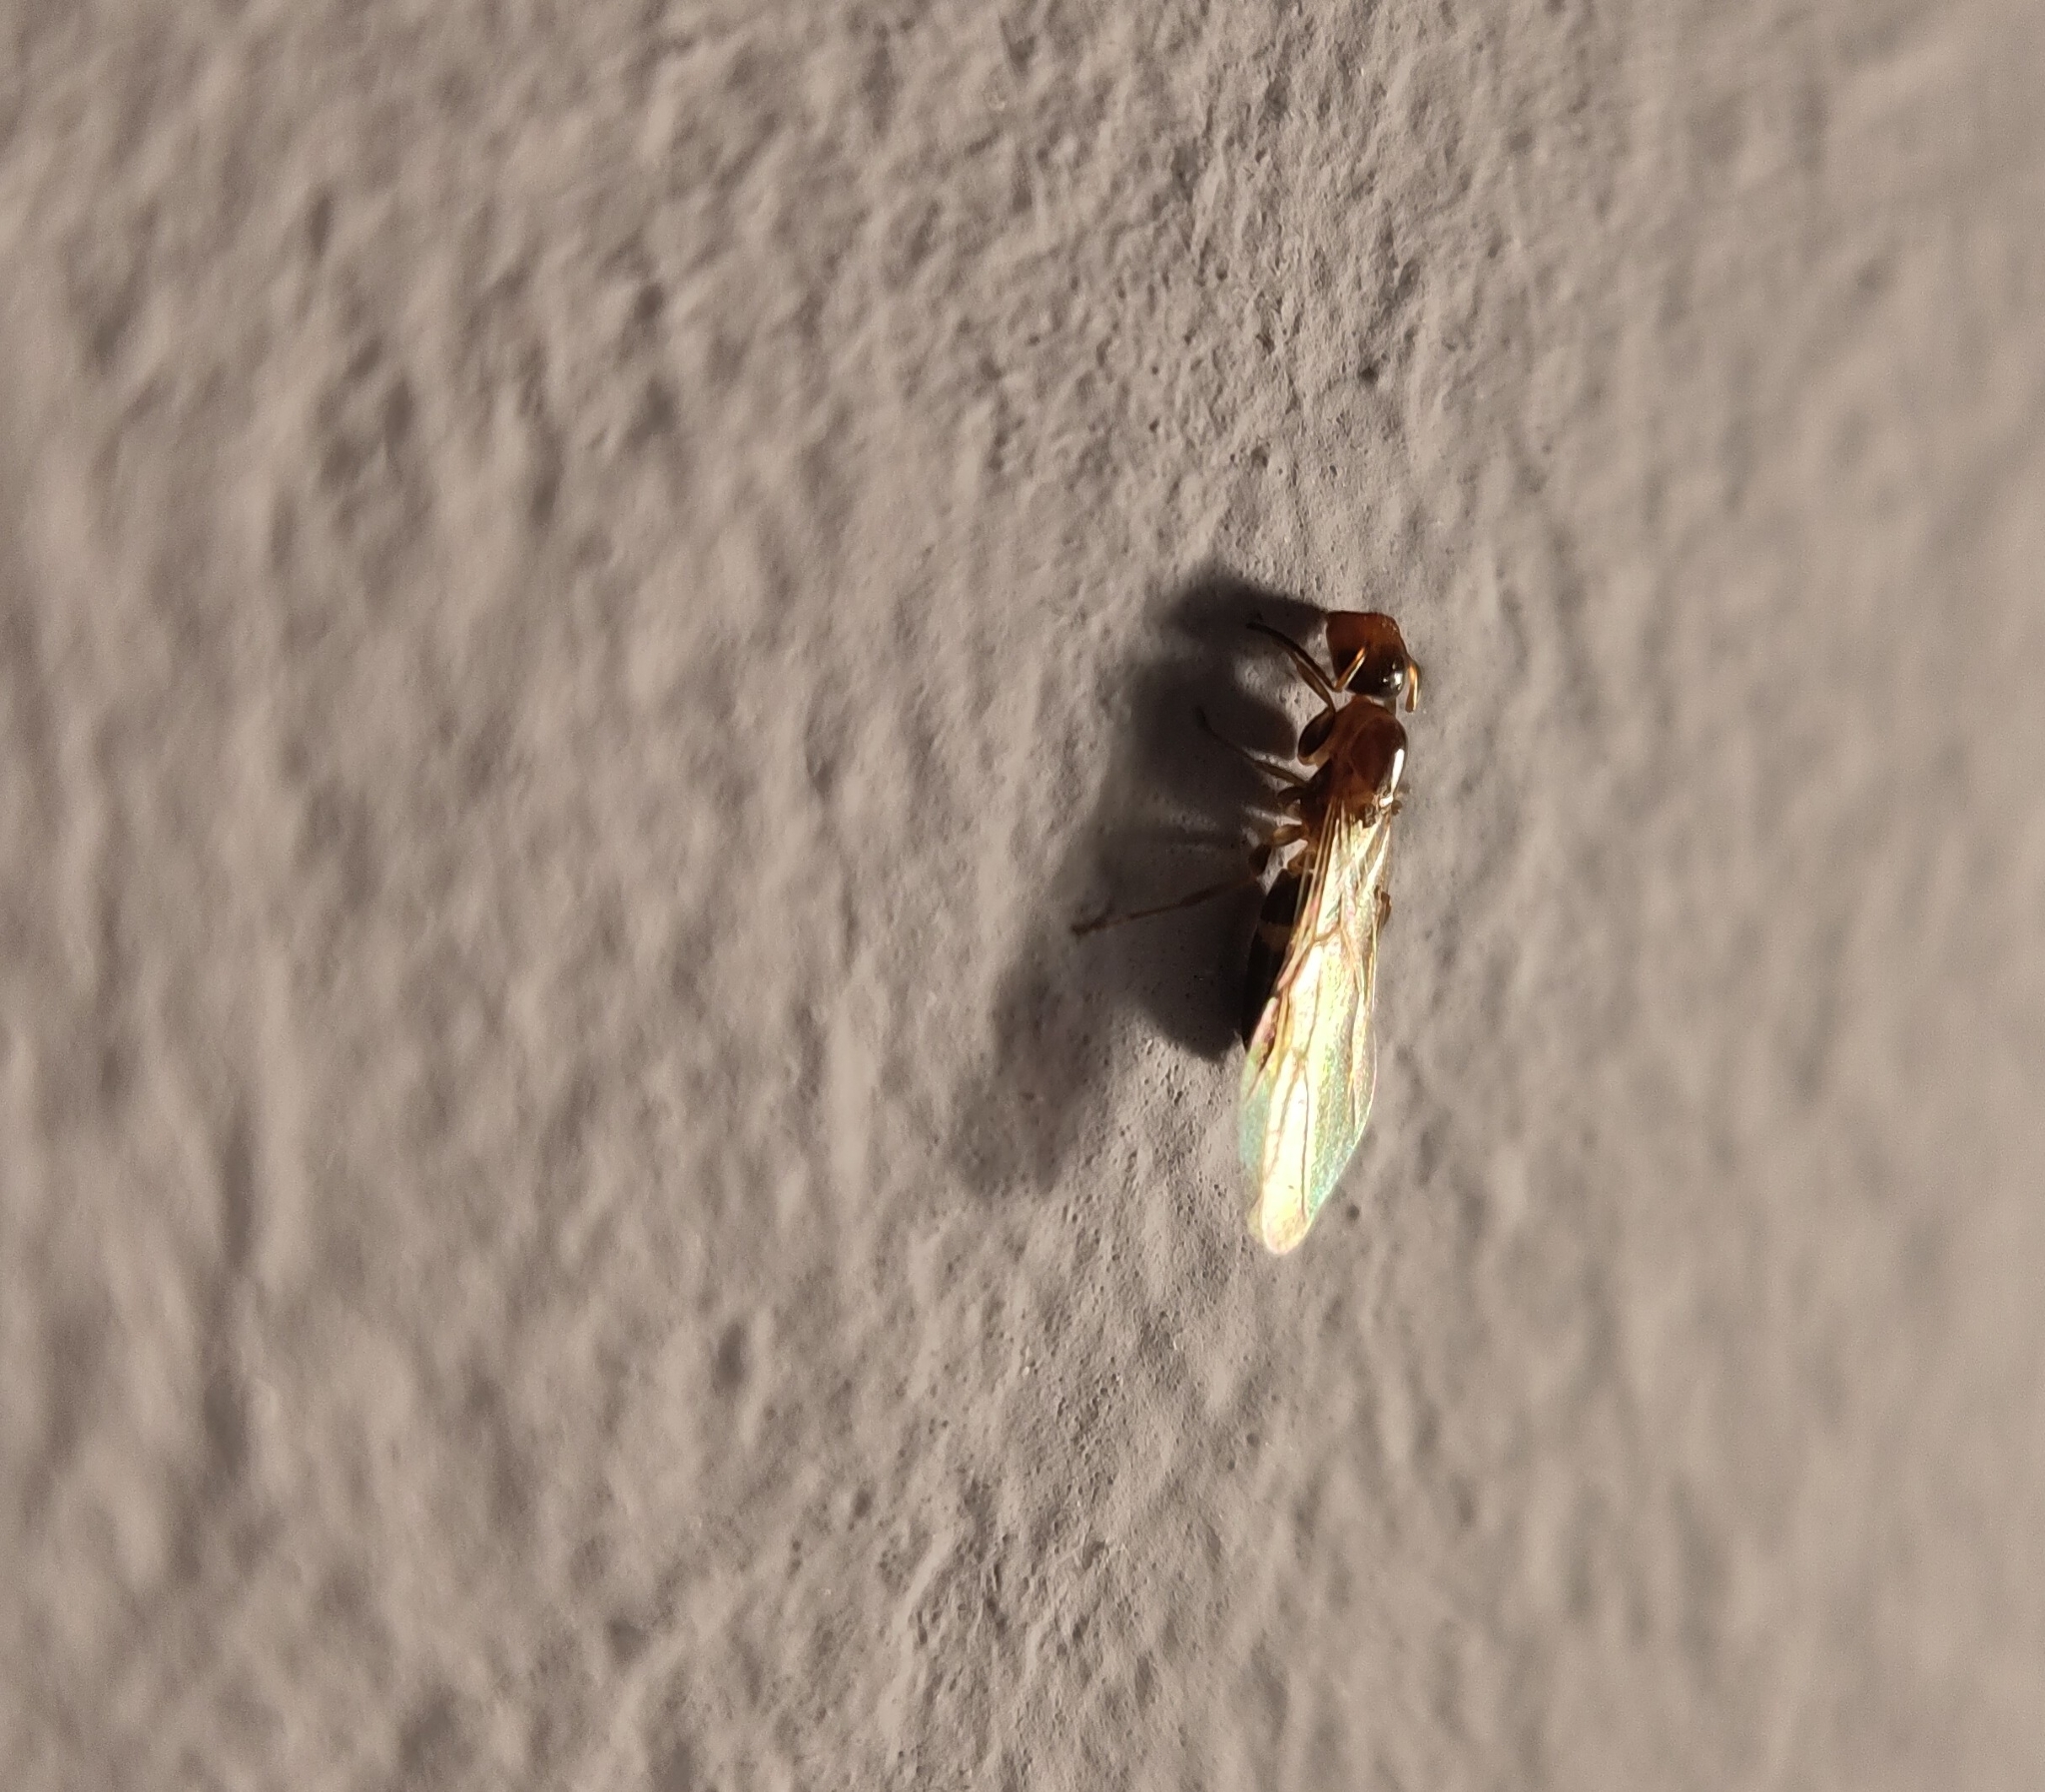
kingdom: Animalia
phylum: Arthropoda
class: Insecta
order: Hymenoptera
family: Formicidae
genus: Camponotus
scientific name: Camponotus truncatus
